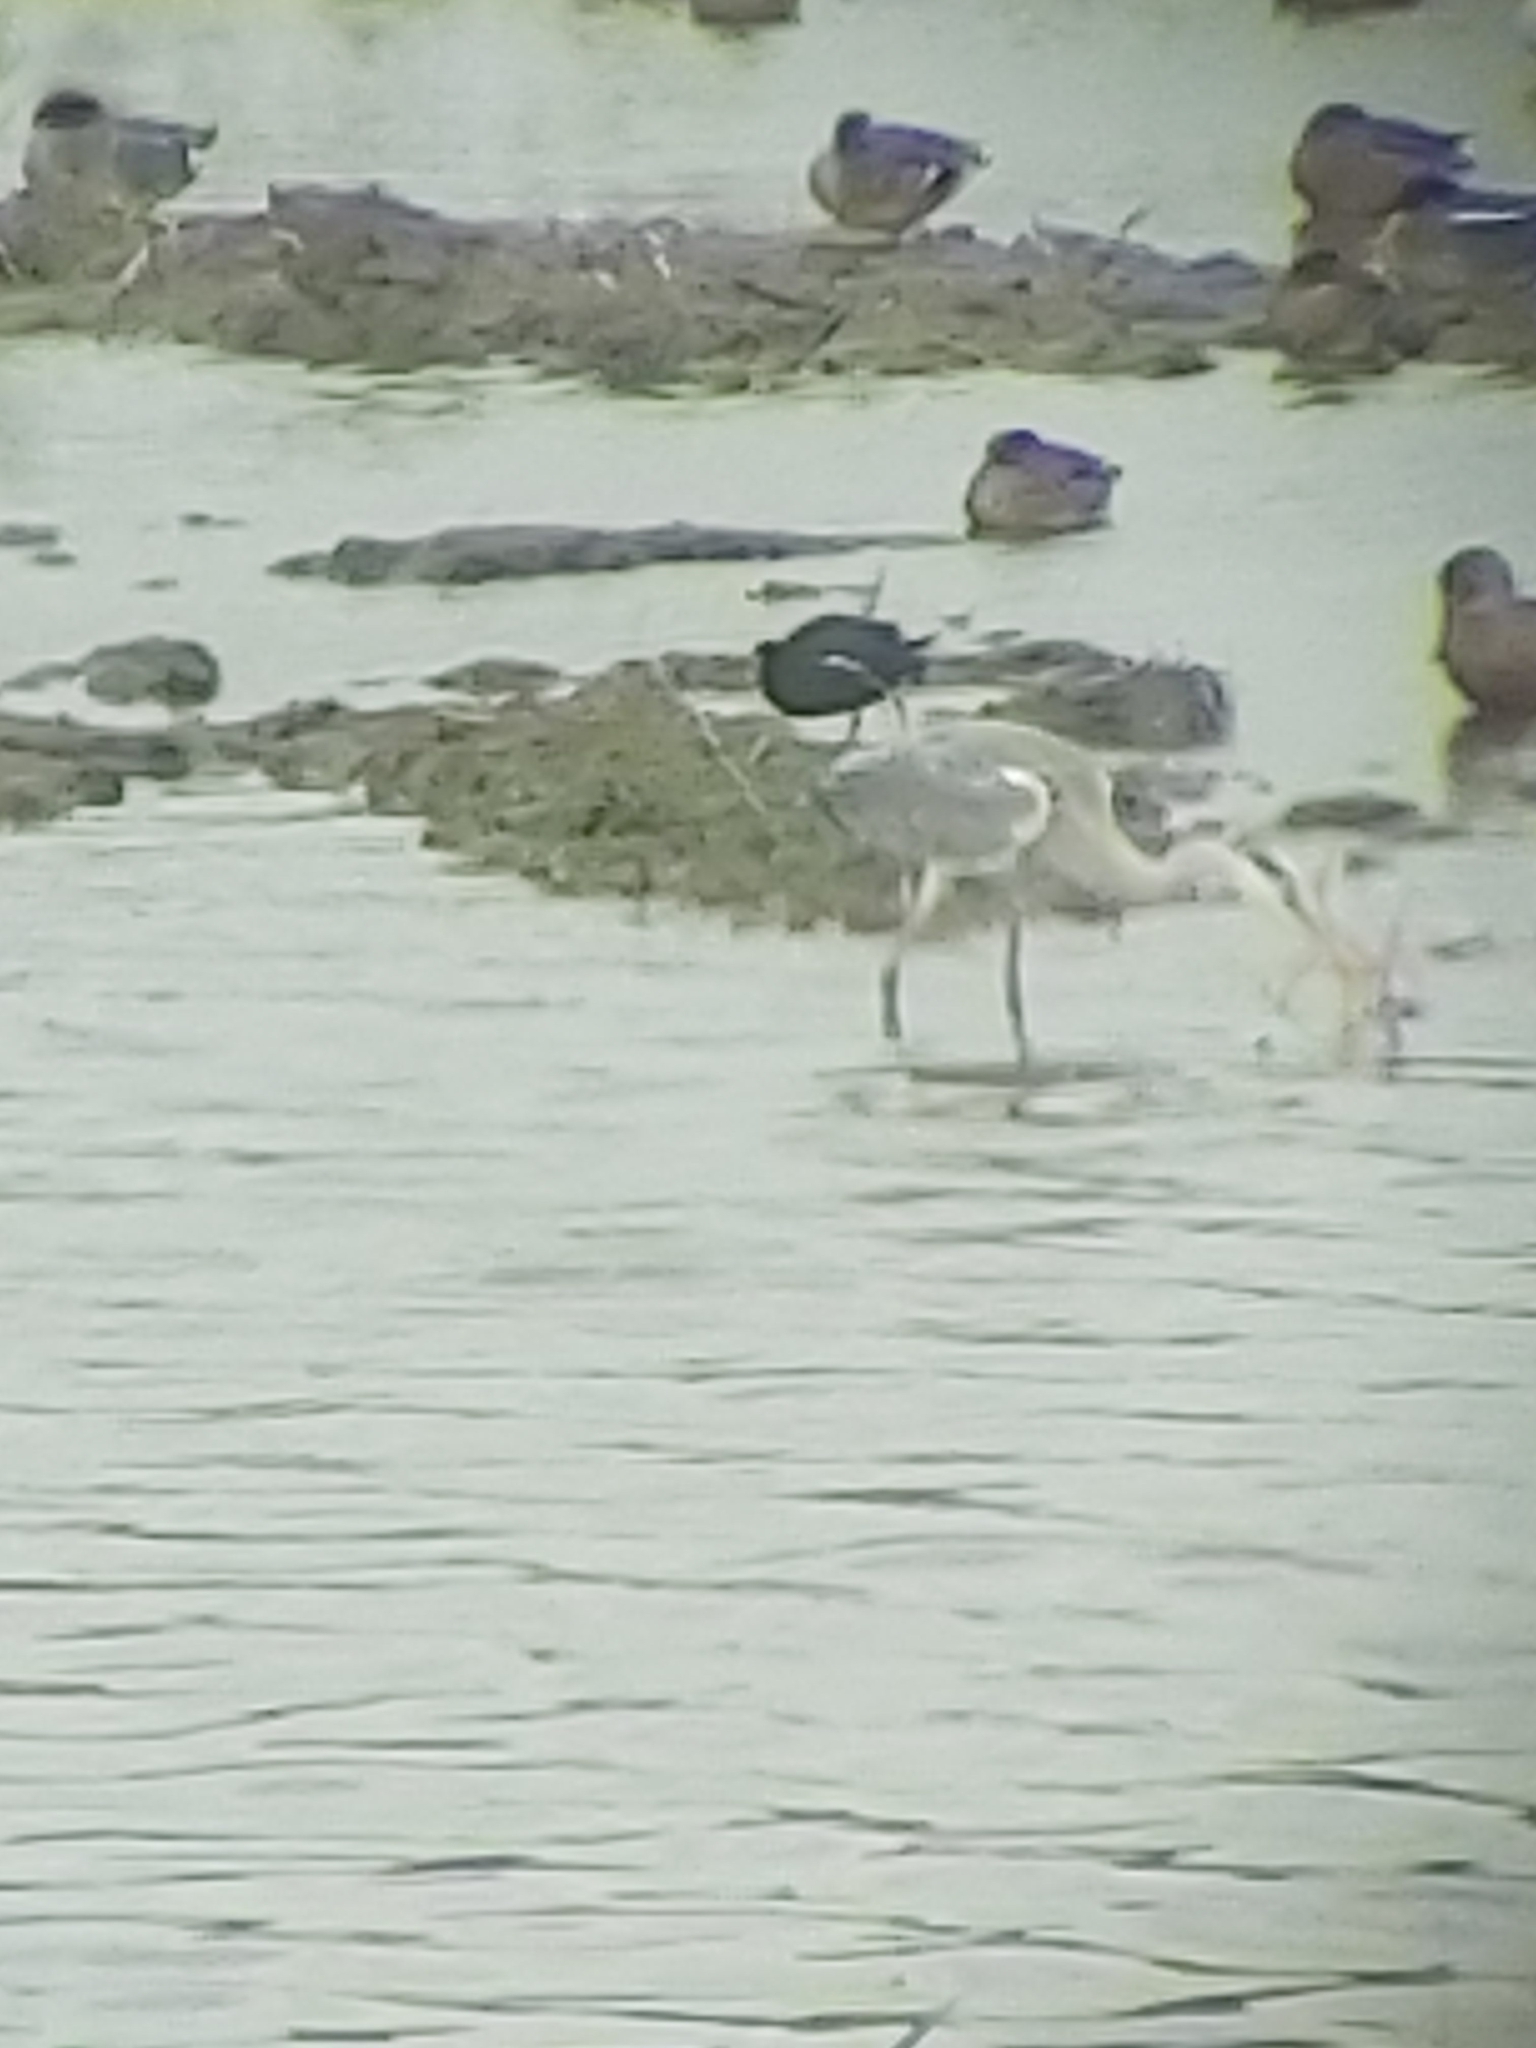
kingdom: Animalia
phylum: Chordata
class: Aves
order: Pelecaniformes
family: Ardeidae
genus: Ardea
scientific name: Ardea cinerea
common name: Grey heron
